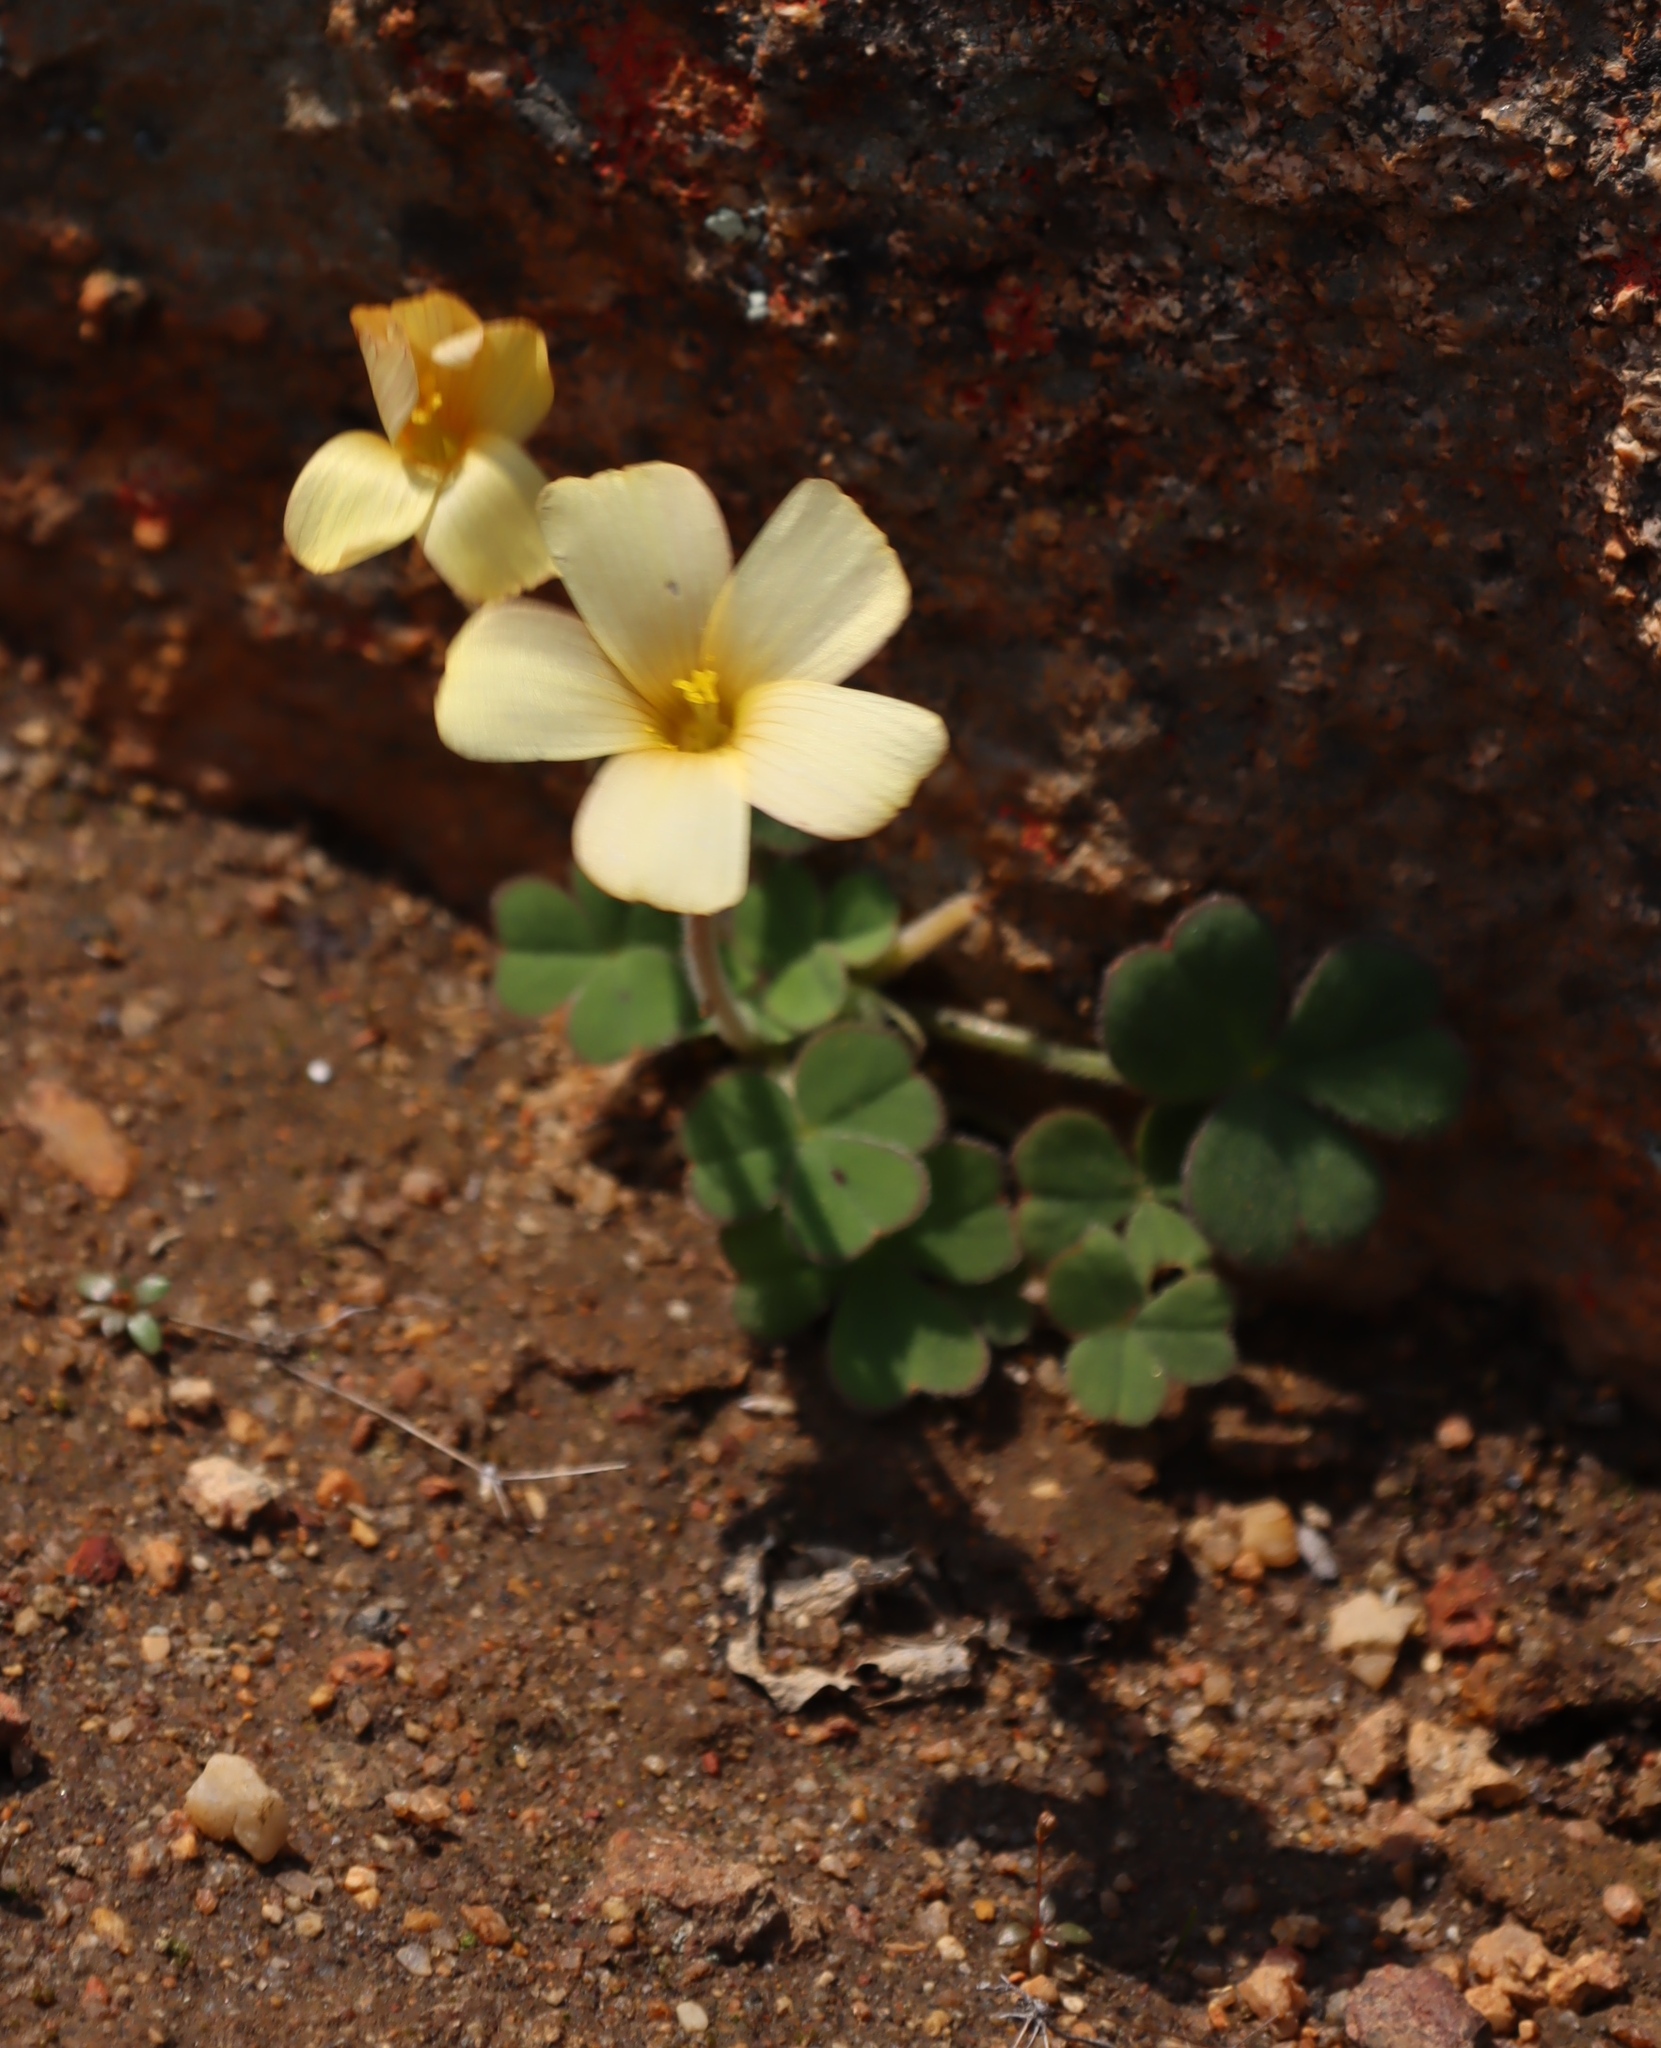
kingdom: Plantae
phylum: Tracheophyta
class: Magnoliopsida
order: Oxalidales
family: Oxalidaceae
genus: Oxalis
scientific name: Oxalis obtusa
